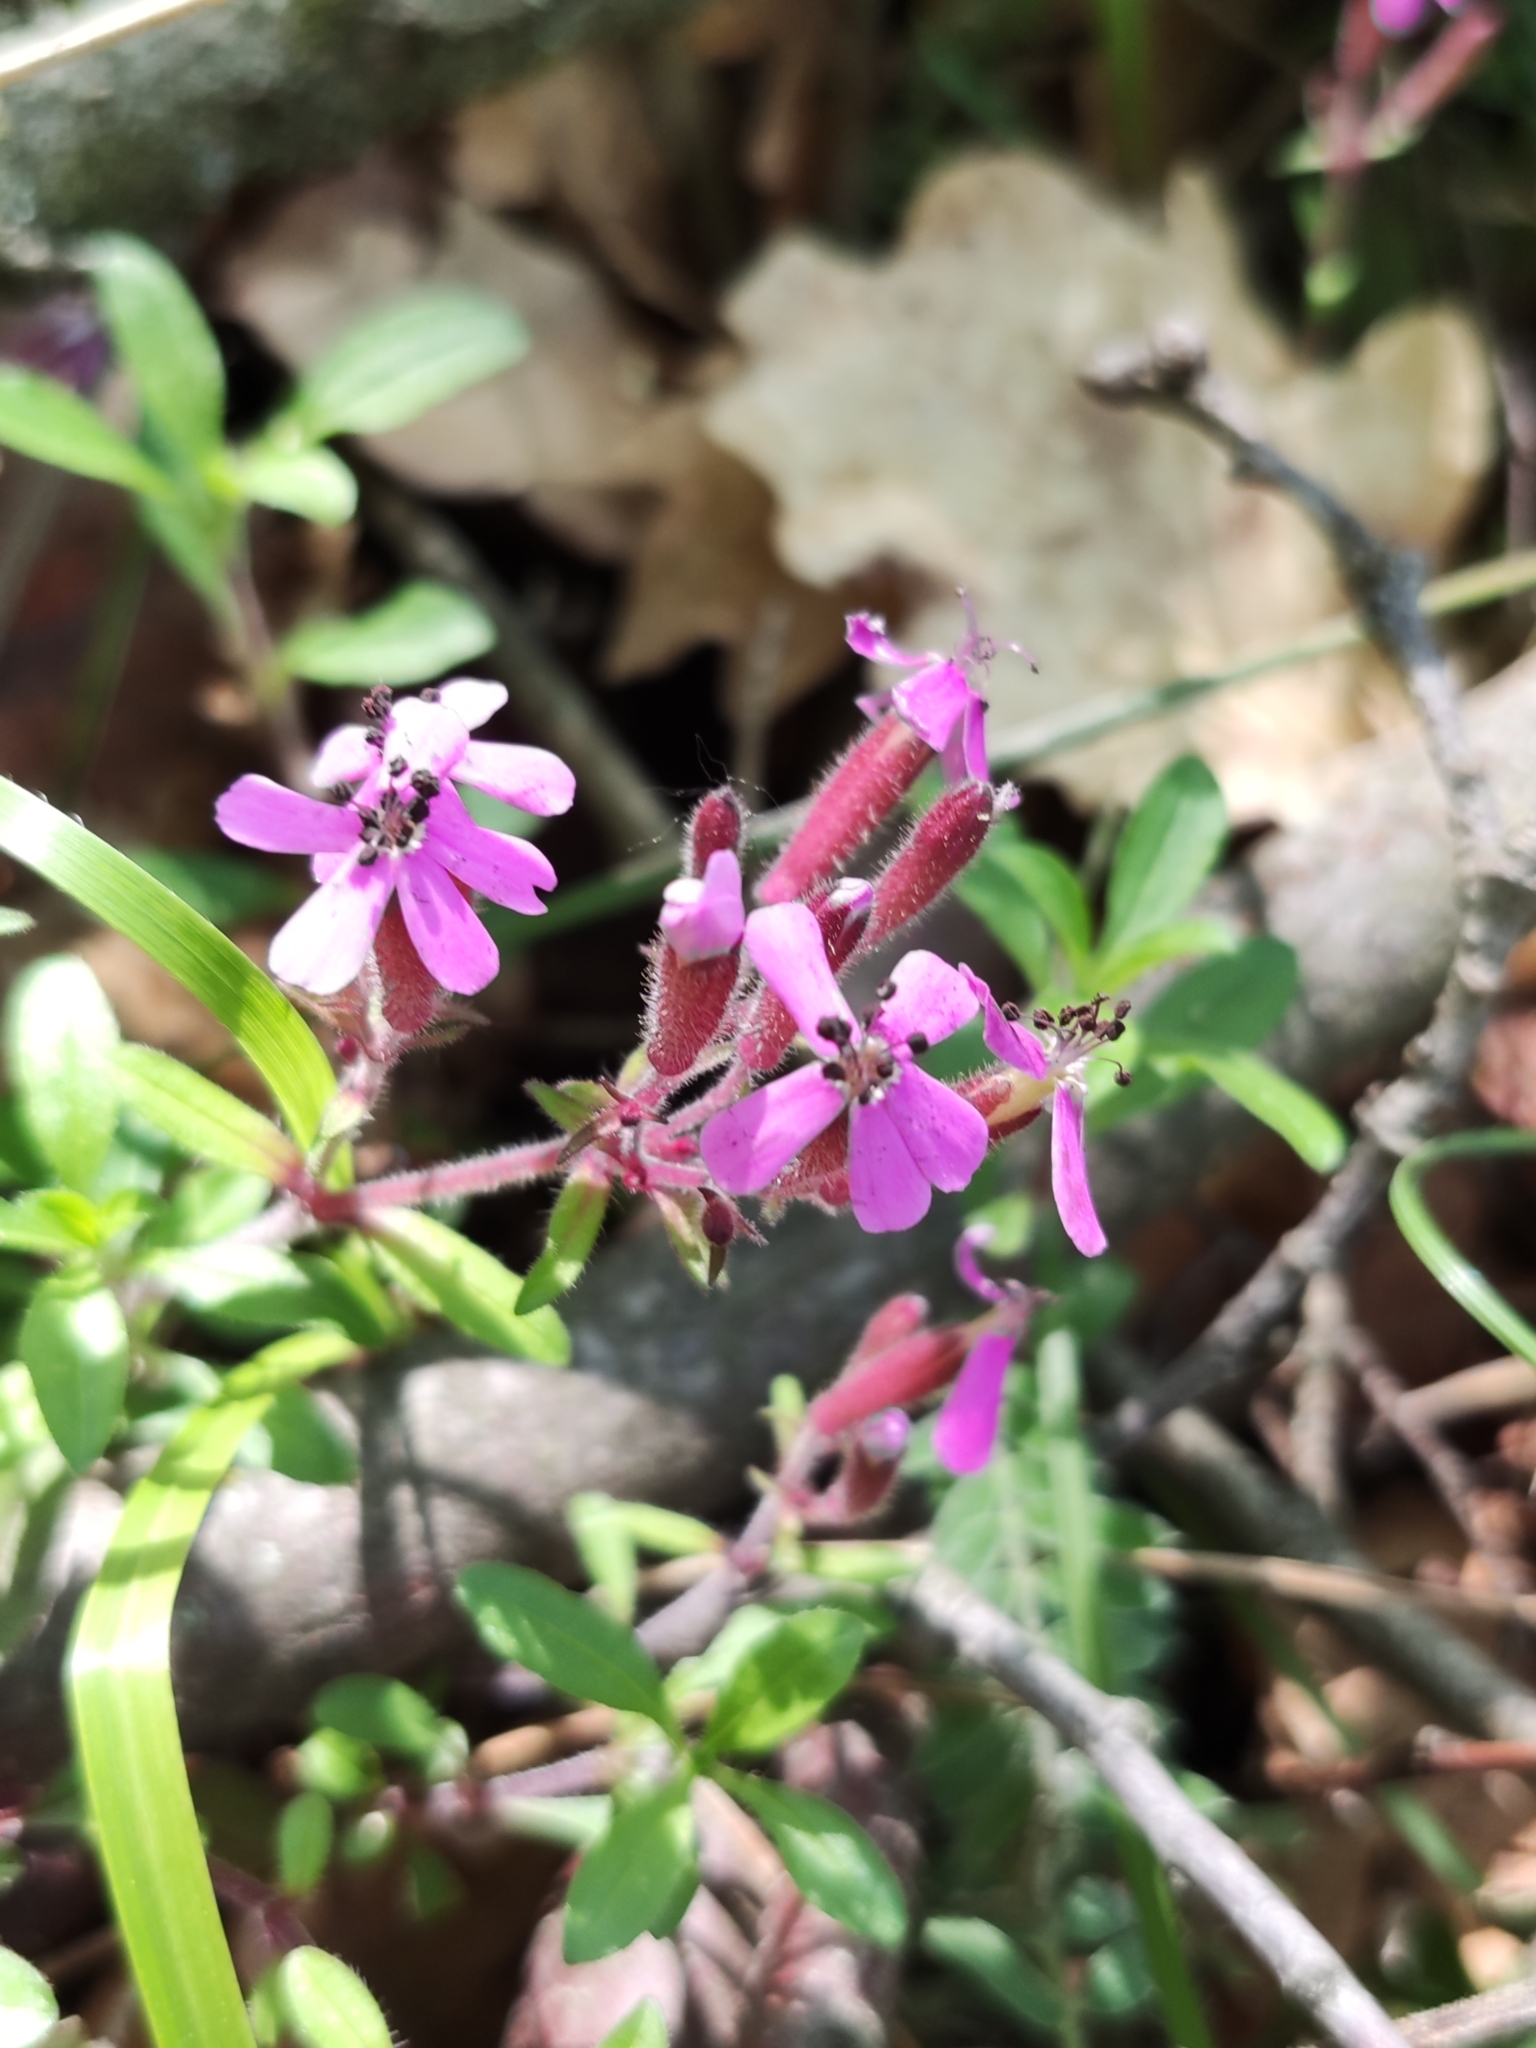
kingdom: Plantae
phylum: Tracheophyta
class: Magnoliopsida
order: Caryophyllales
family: Caryophyllaceae
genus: Saponaria
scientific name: Saponaria ocymoides
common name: Rock soapwort
